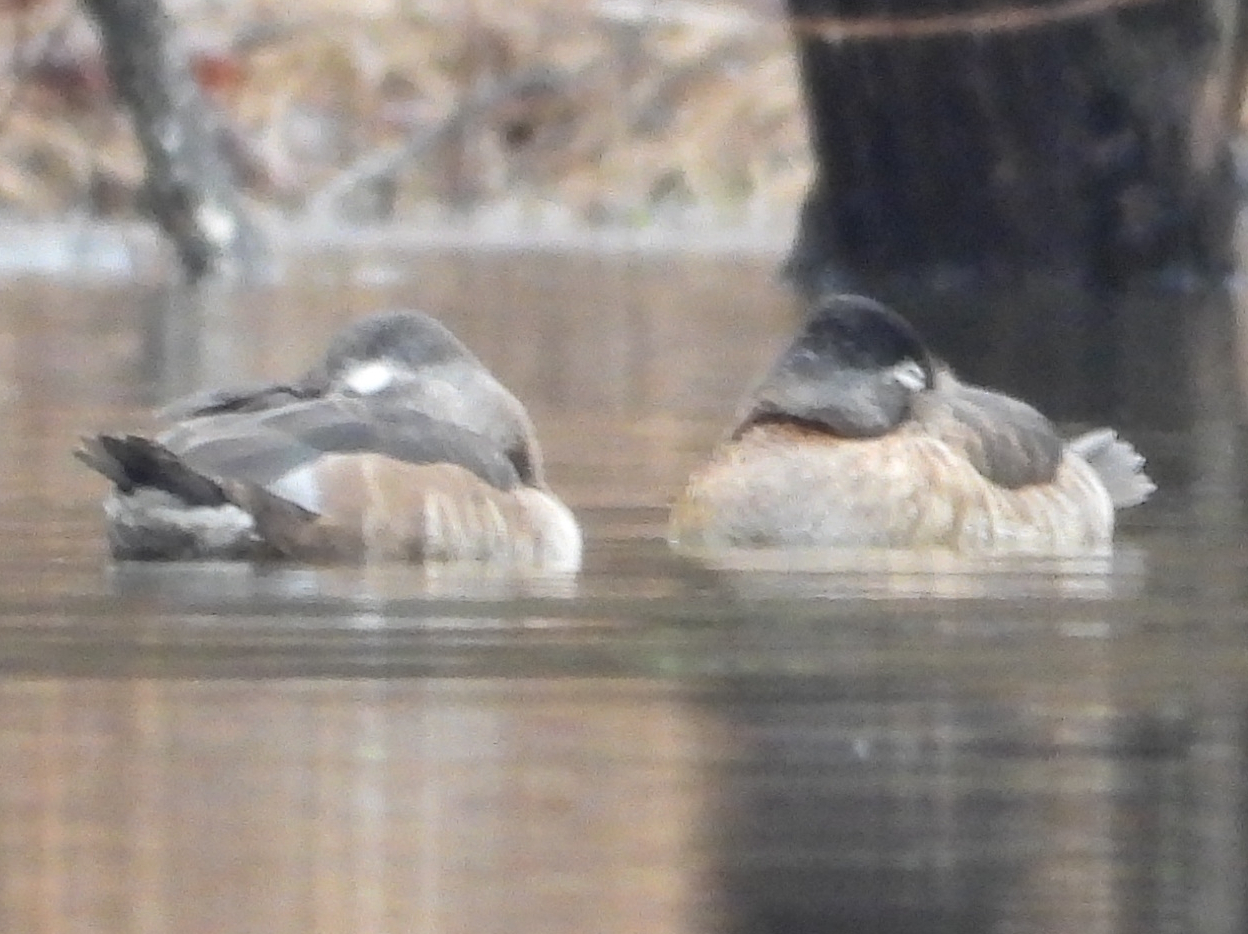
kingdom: Animalia
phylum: Chordata
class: Aves
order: Anseriformes
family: Anatidae
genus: Aythya
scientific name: Aythya collaris
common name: Ring-necked duck
